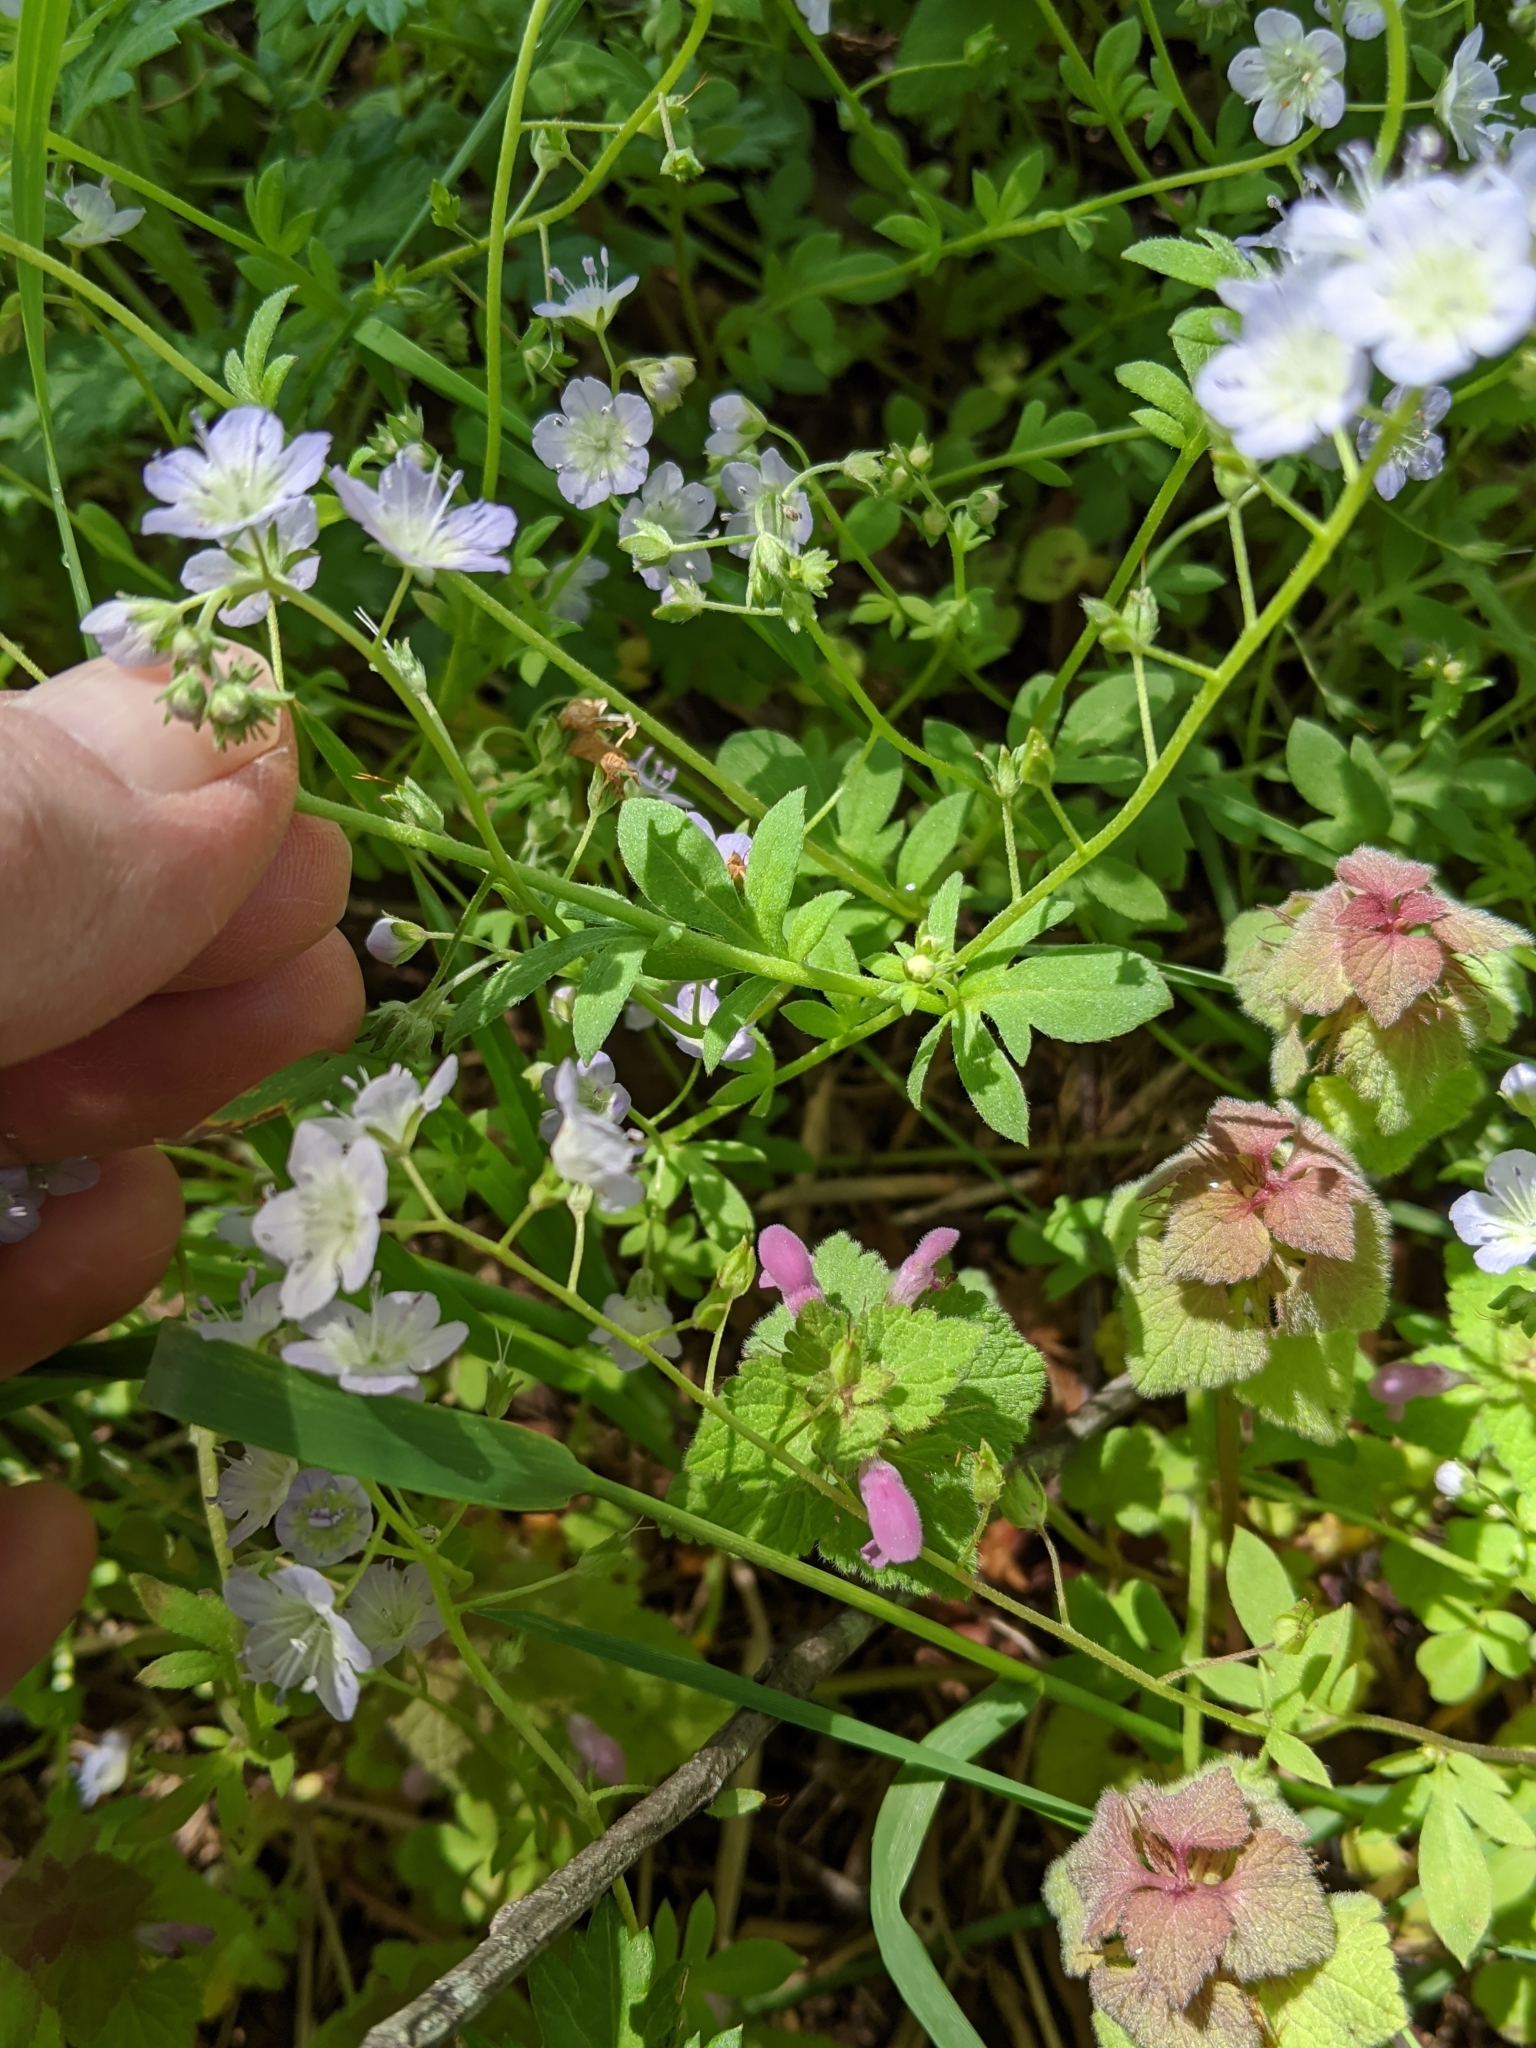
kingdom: Plantae
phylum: Tracheophyta
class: Magnoliopsida
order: Boraginales
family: Hydrophyllaceae
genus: Phacelia
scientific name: Phacelia dubia
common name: Appalachian phacelia
